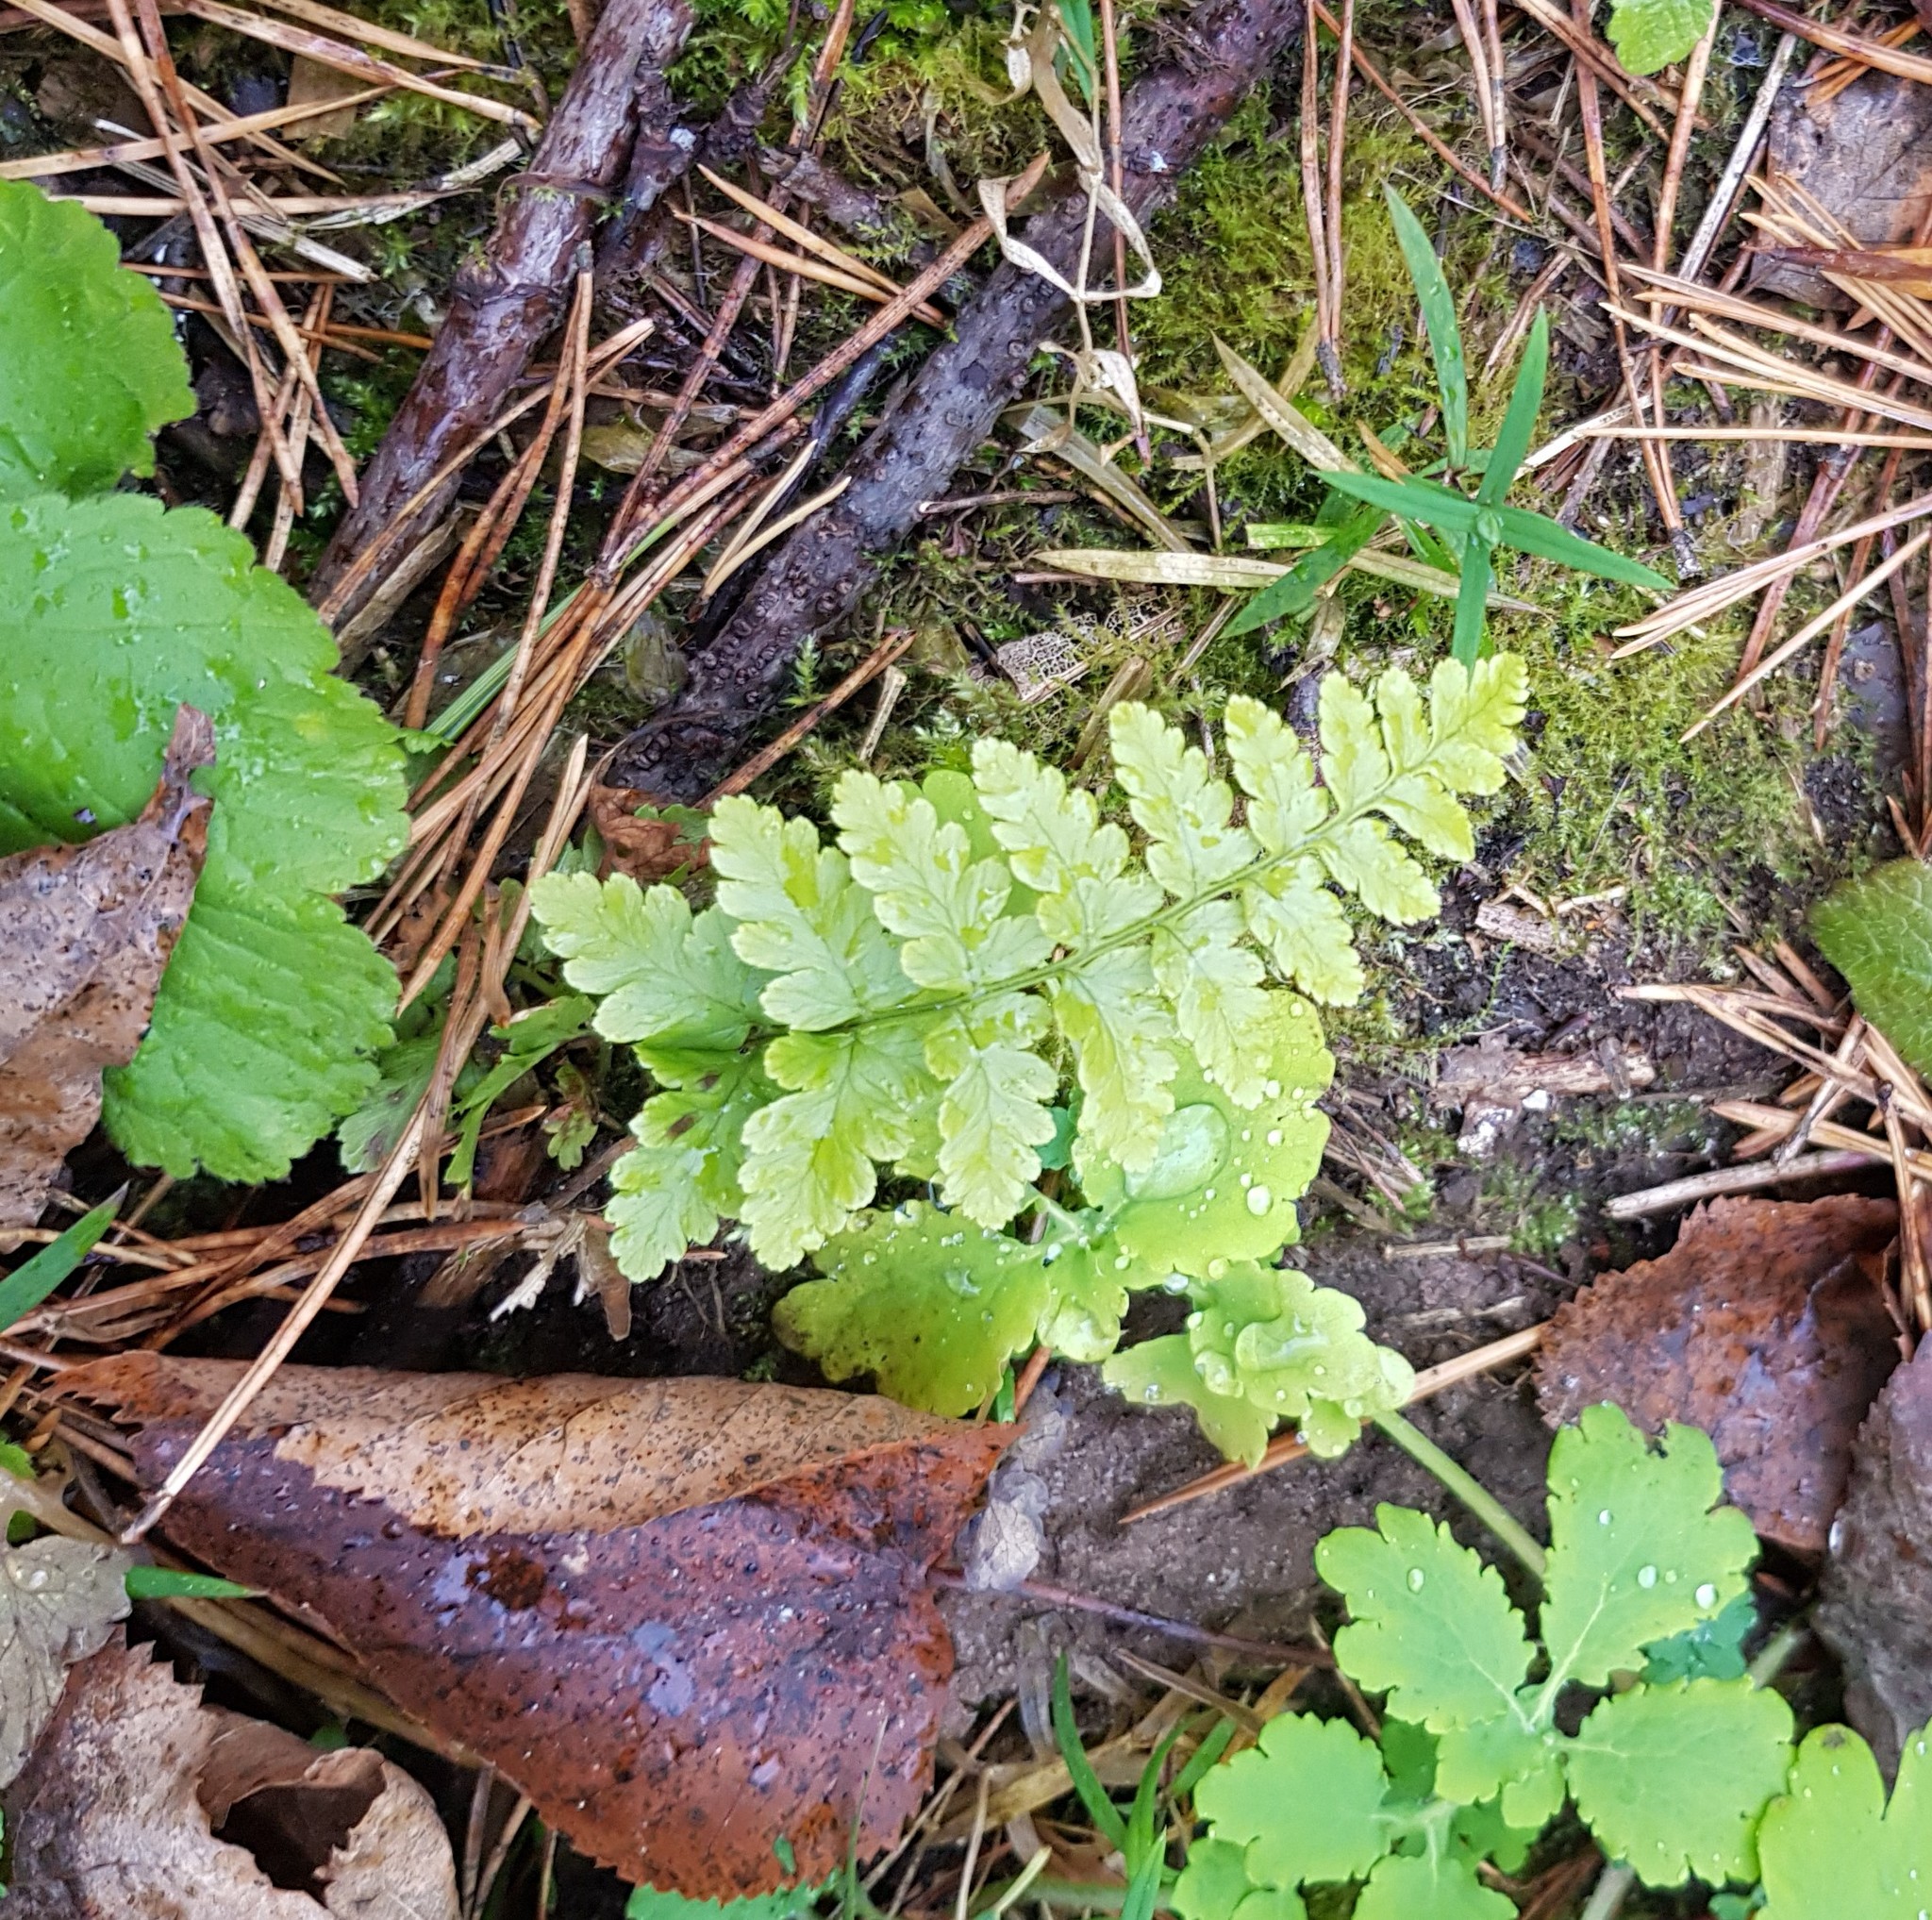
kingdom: Plantae
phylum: Tracheophyta
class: Polypodiopsida
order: Polypodiales
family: Dryopteridaceae
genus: Dryopteris
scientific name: Dryopteris
